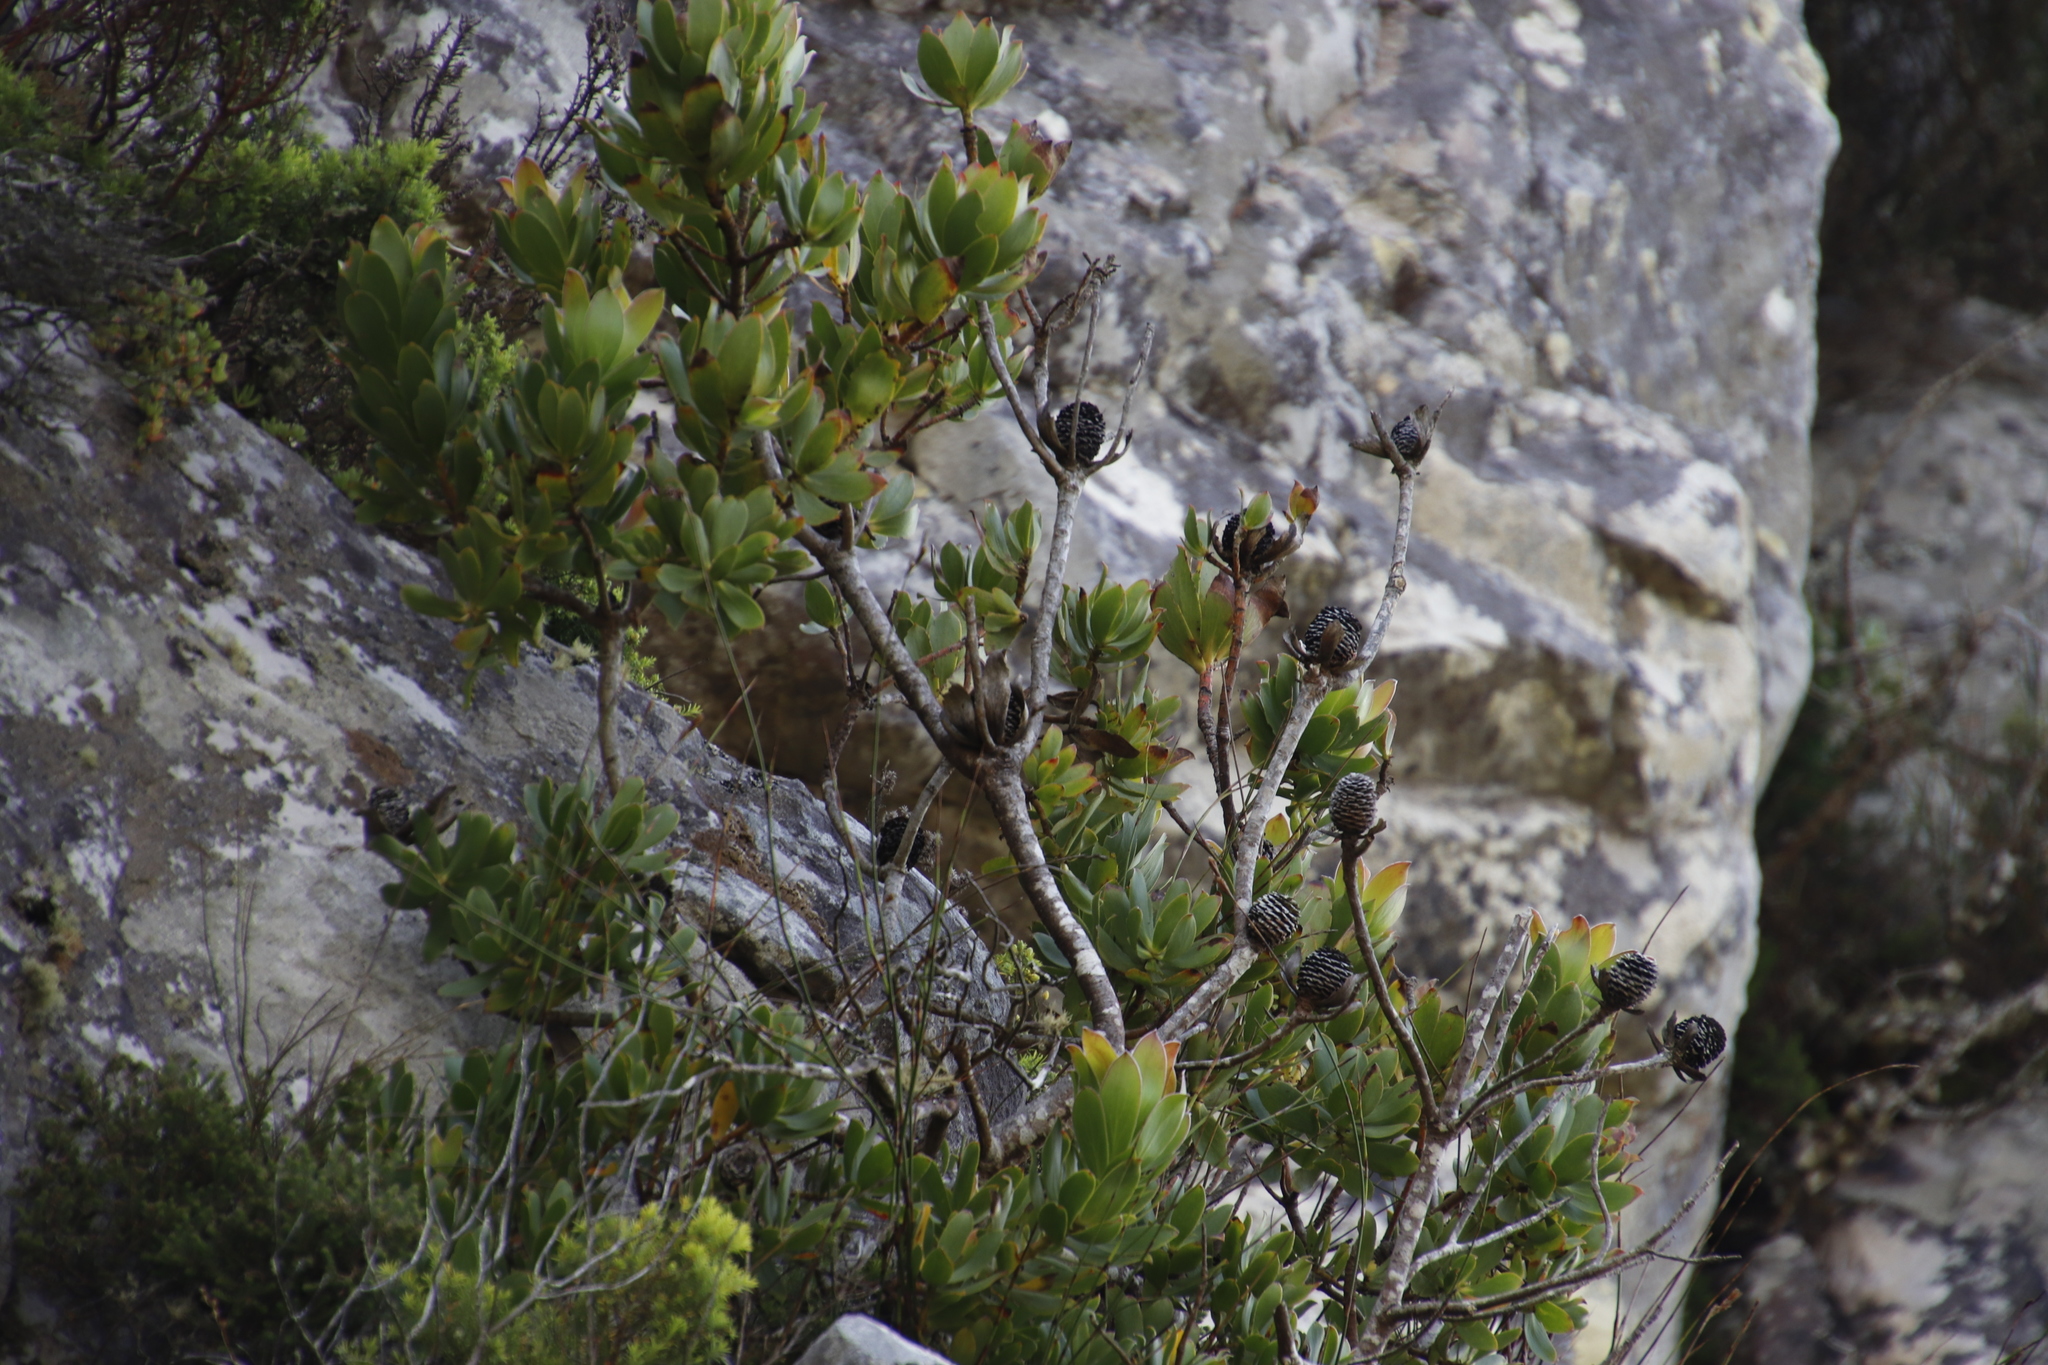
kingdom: Plantae
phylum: Tracheophyta
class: Magnoliopsida
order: Proteales
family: Proteaceae
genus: Leucadendron
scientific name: Leucadendron strobilinum
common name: Mountain rose
